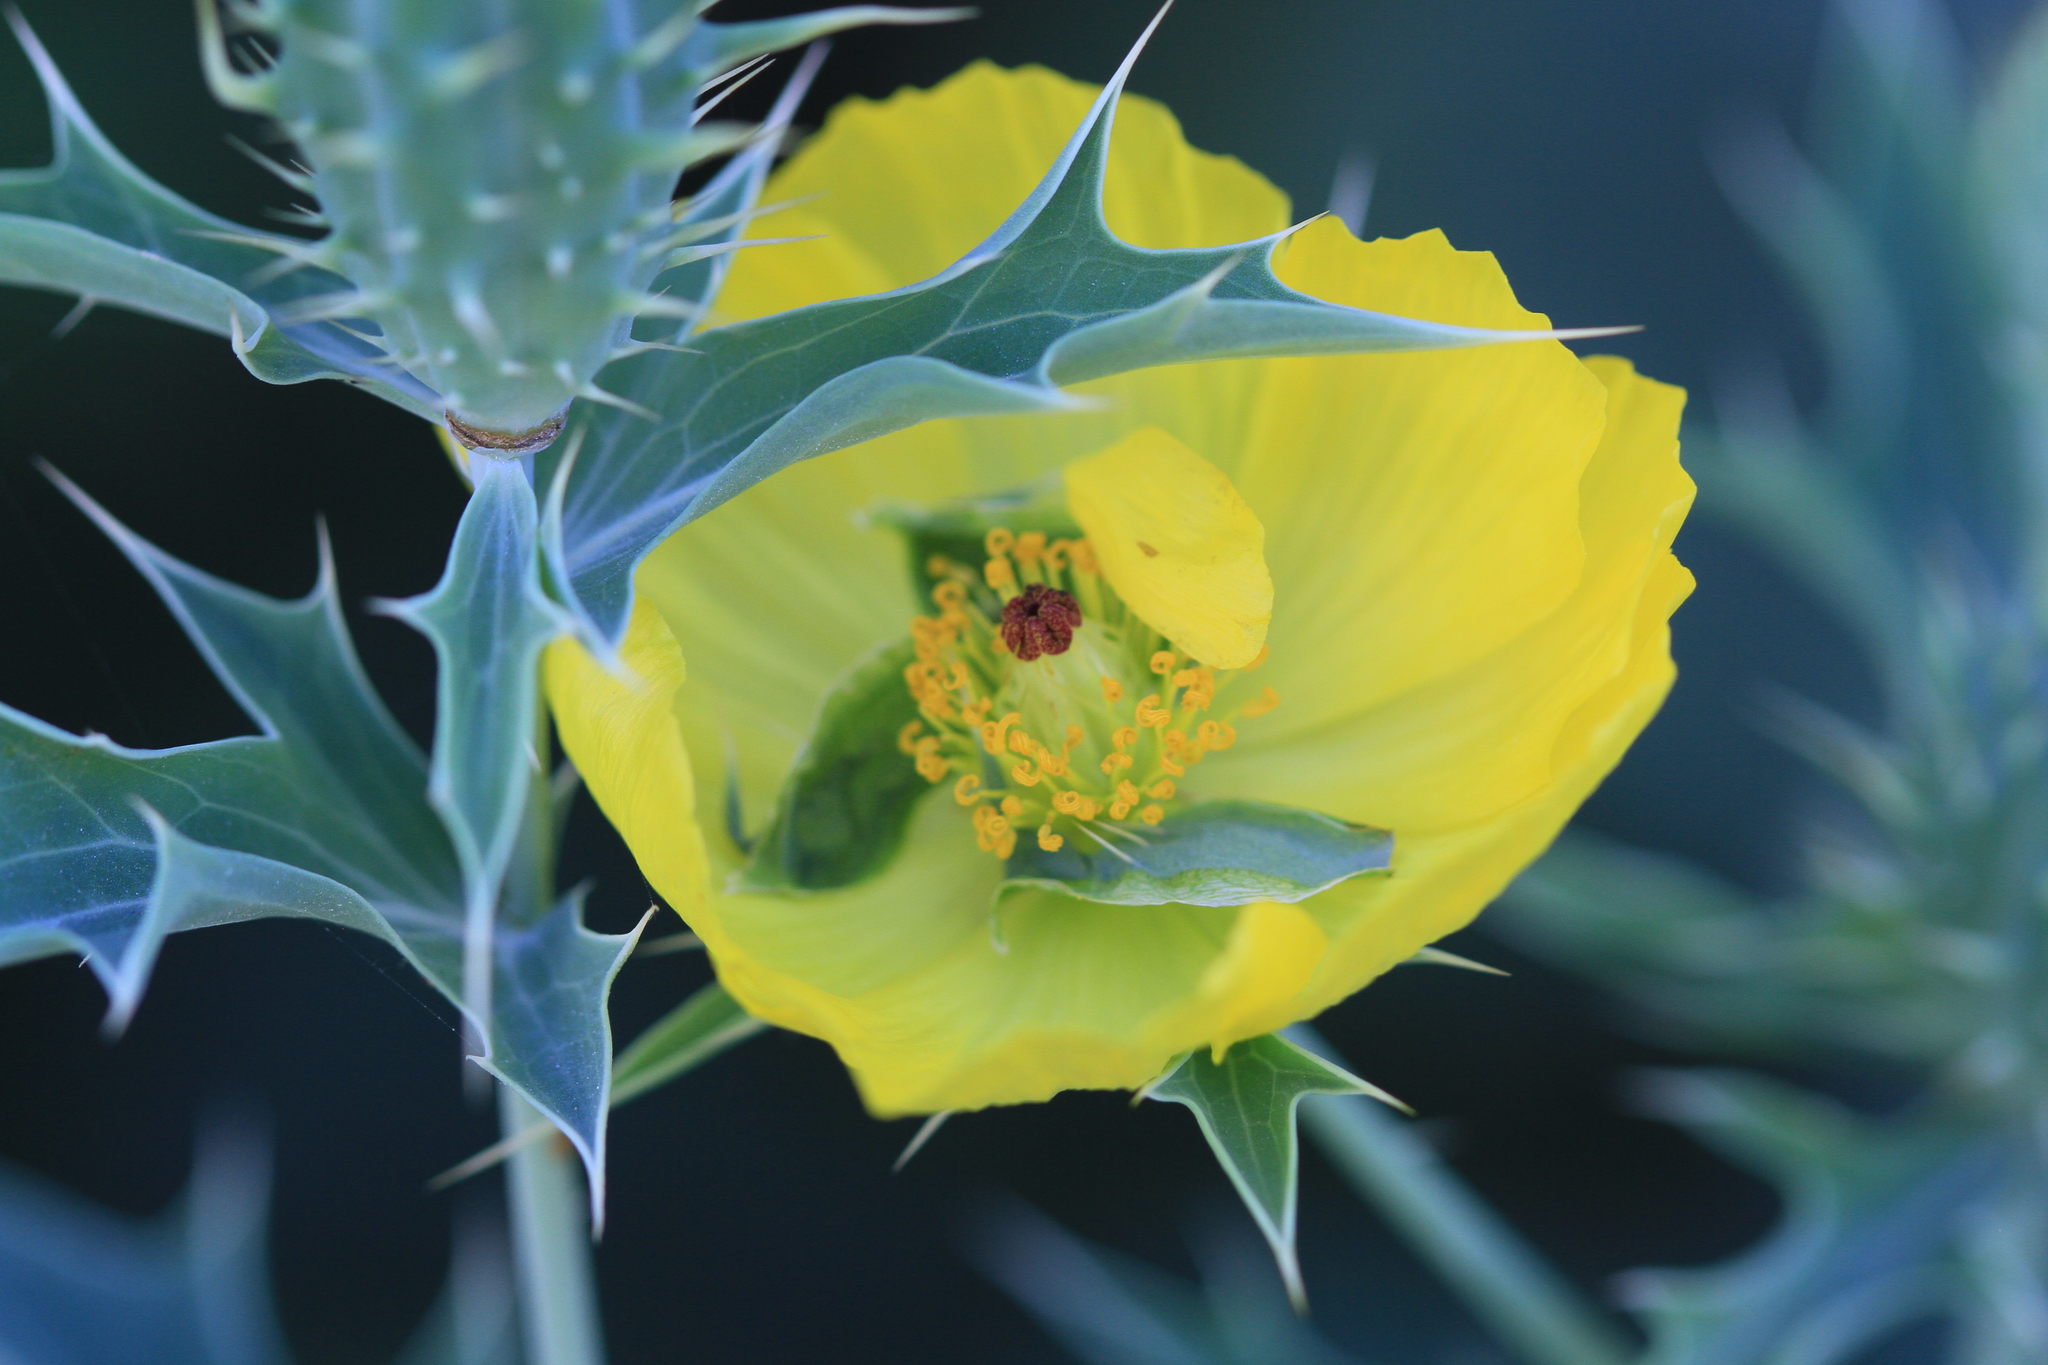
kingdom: Plantae
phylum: Tracheophyta
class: Magnoliopsida
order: Ranunculales
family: Papaveraceae
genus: Argemone
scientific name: Argemone mexicana
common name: Mexican poppy
